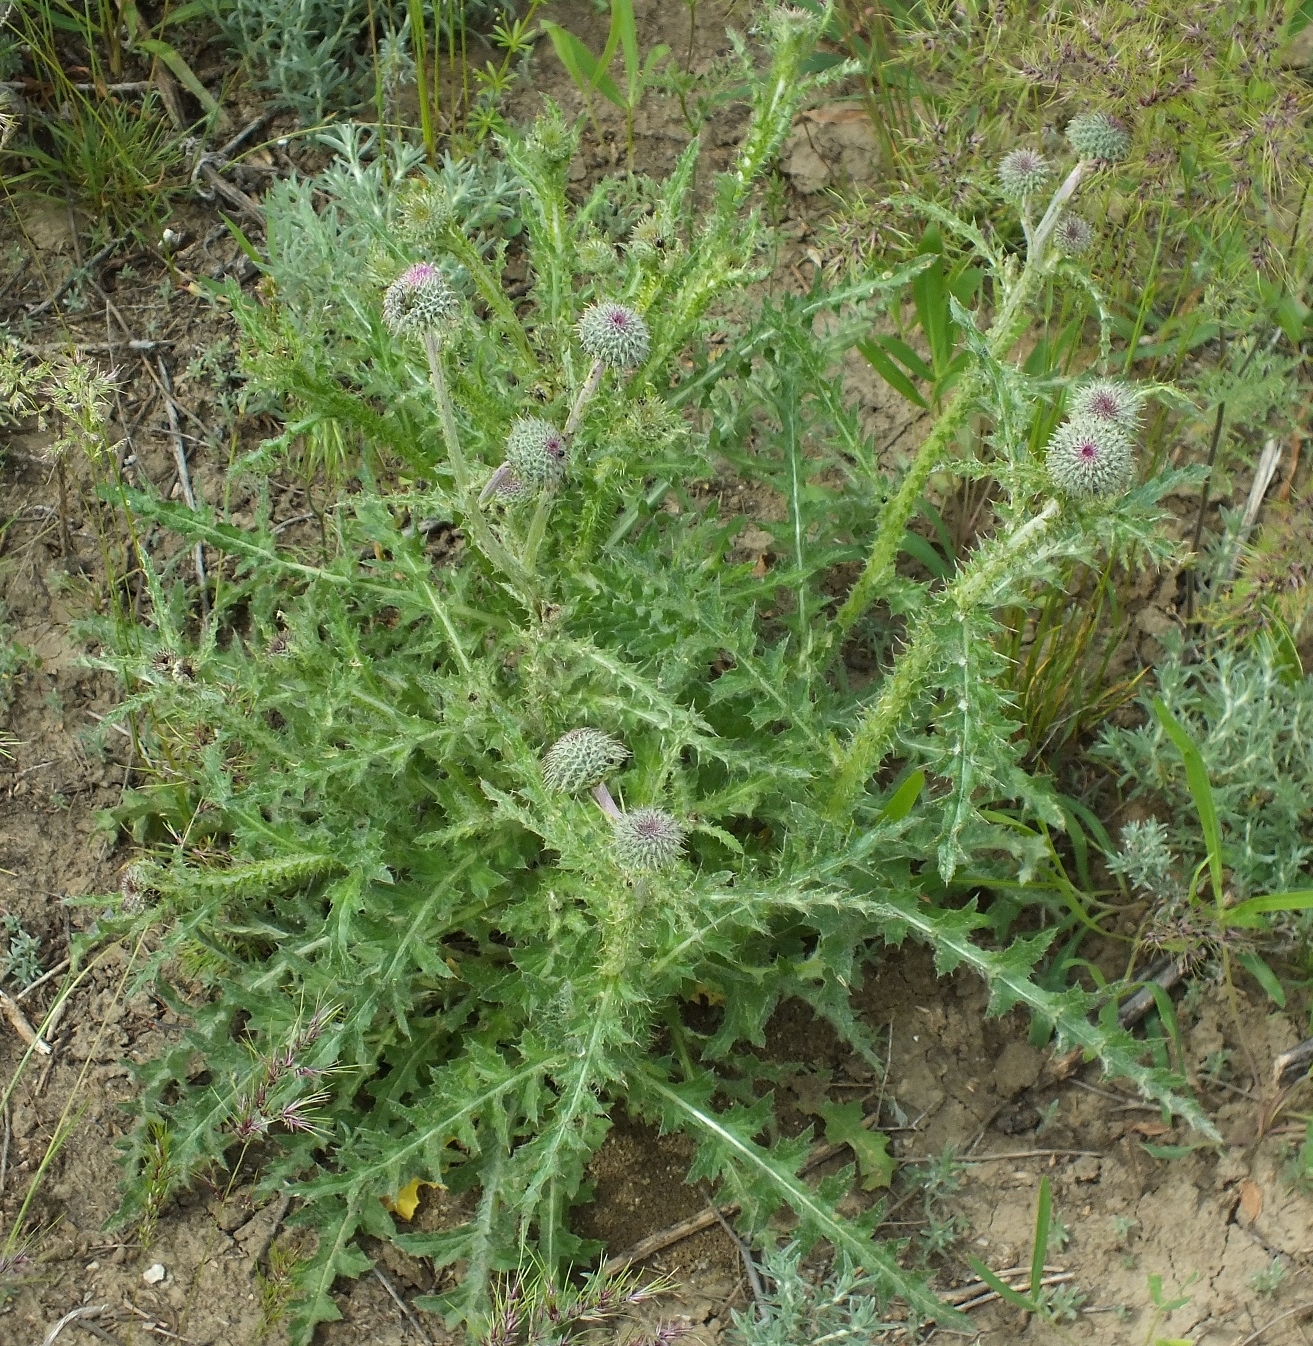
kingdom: Plantae
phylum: Tracheophyta
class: Magnoliopsida
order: Asterales
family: Asteraceae
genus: Carduus
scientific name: Carduus uncinatus
